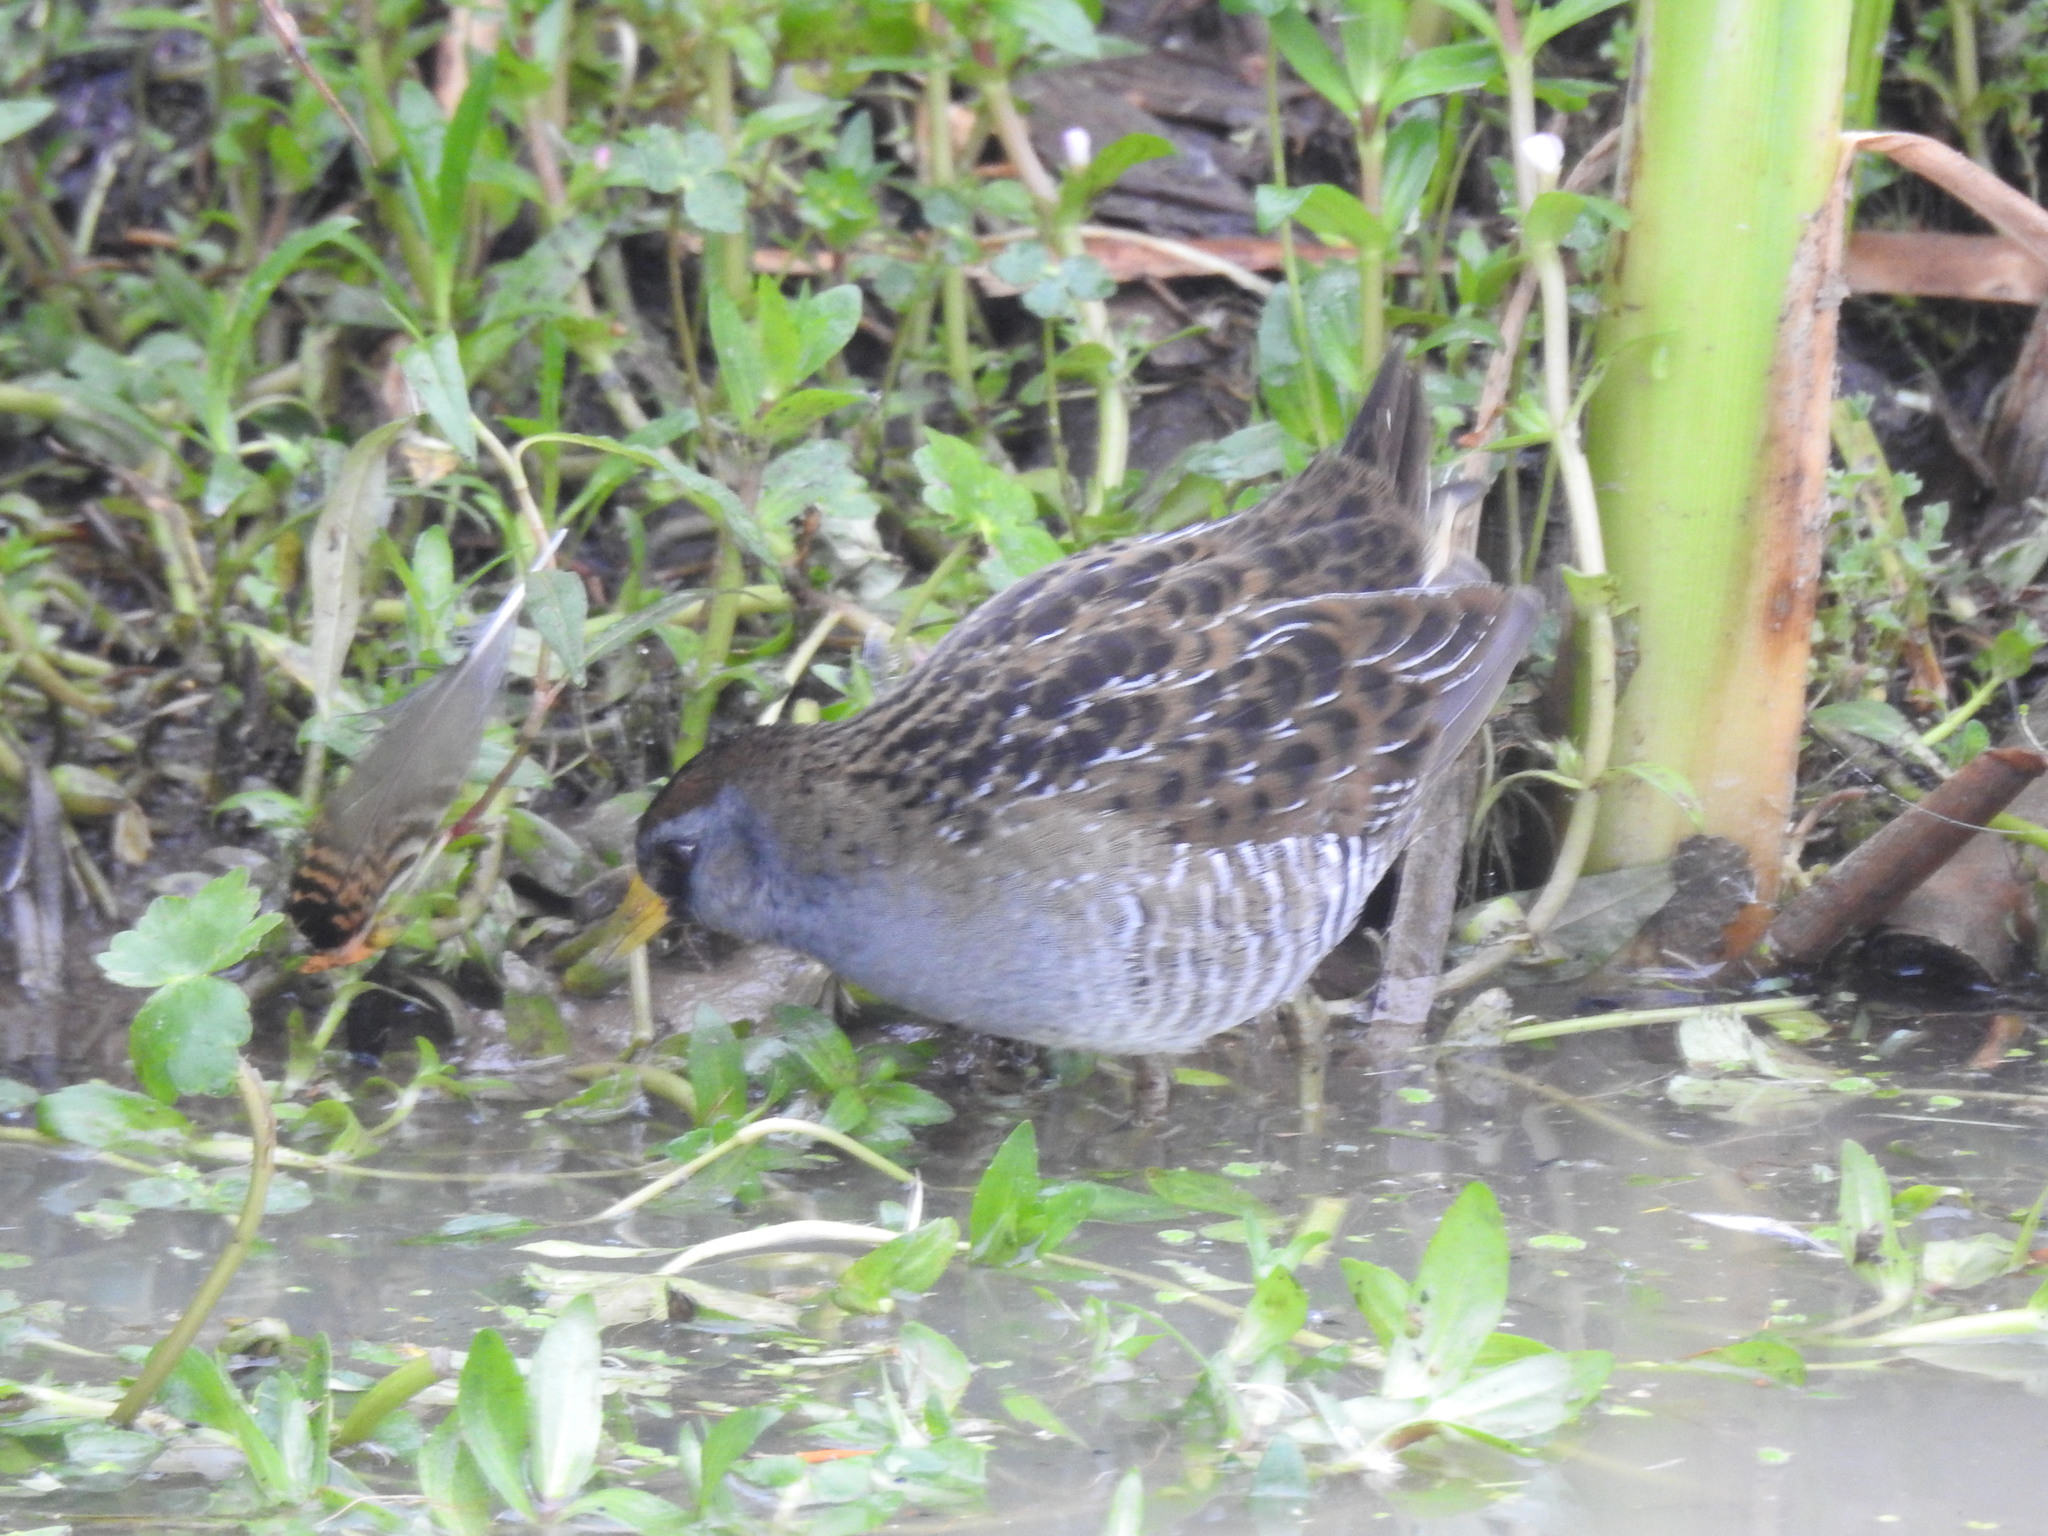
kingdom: Animalia
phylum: Chordata
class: Aves
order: Gruiformes
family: Rallidae
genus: Porzana
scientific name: Porzana carolina
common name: Sora
